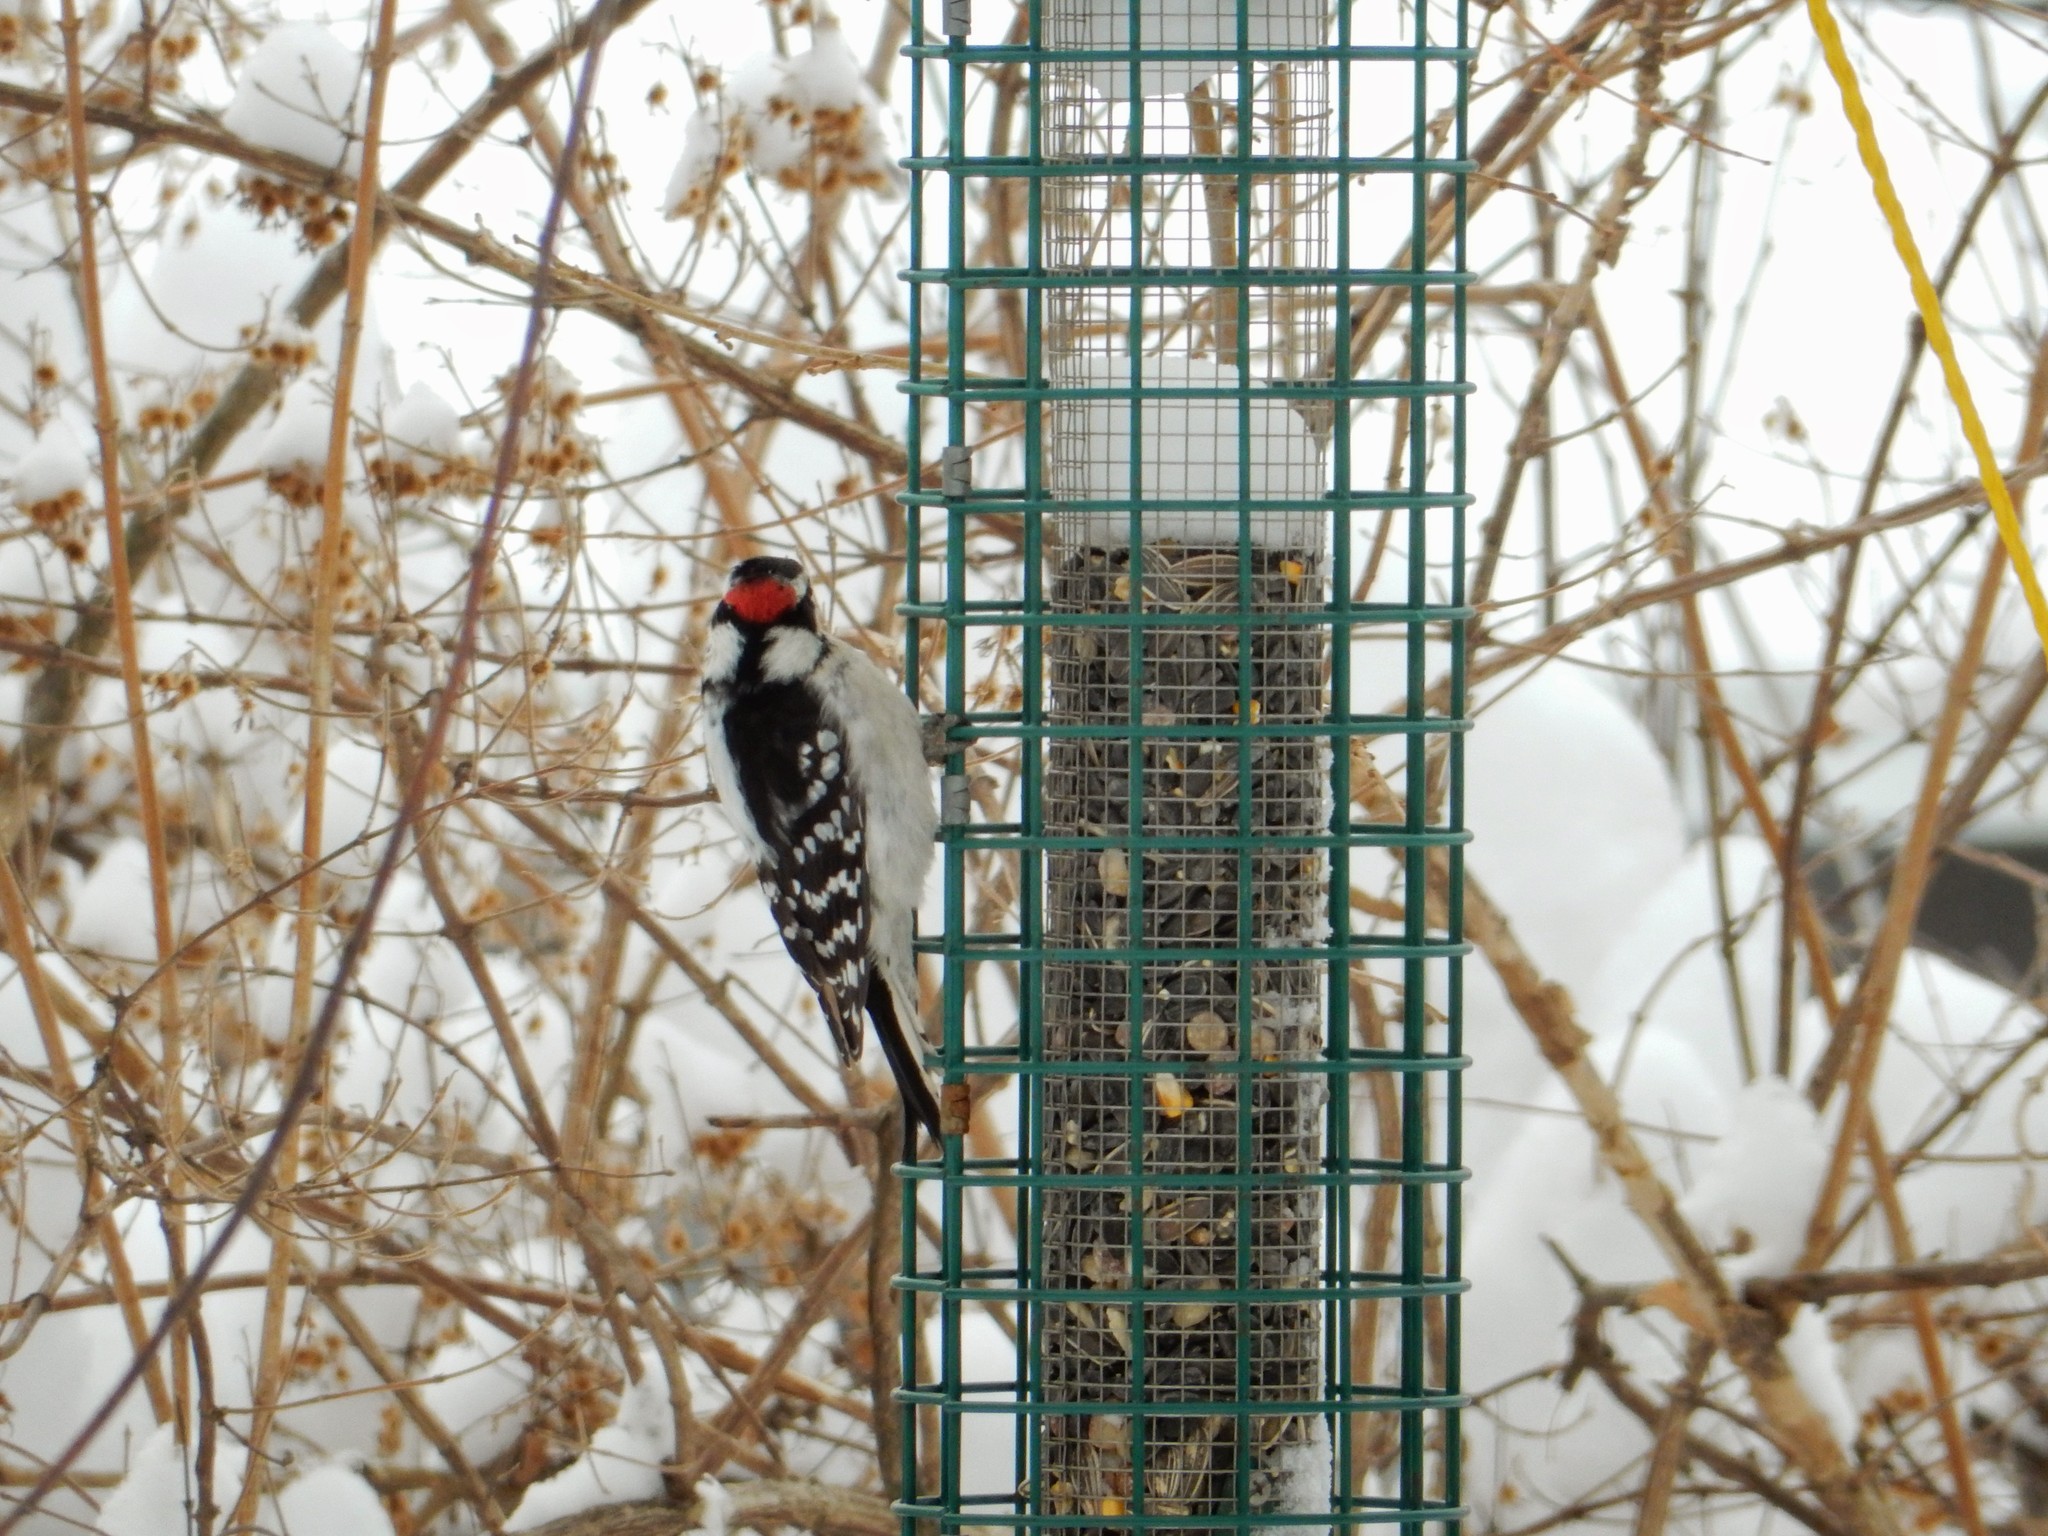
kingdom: Animalia
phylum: Chordata
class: Aves
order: Piciformes
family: Picidae
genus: Dryobates
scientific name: Dryobates pubescens
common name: Downy woodpecker
